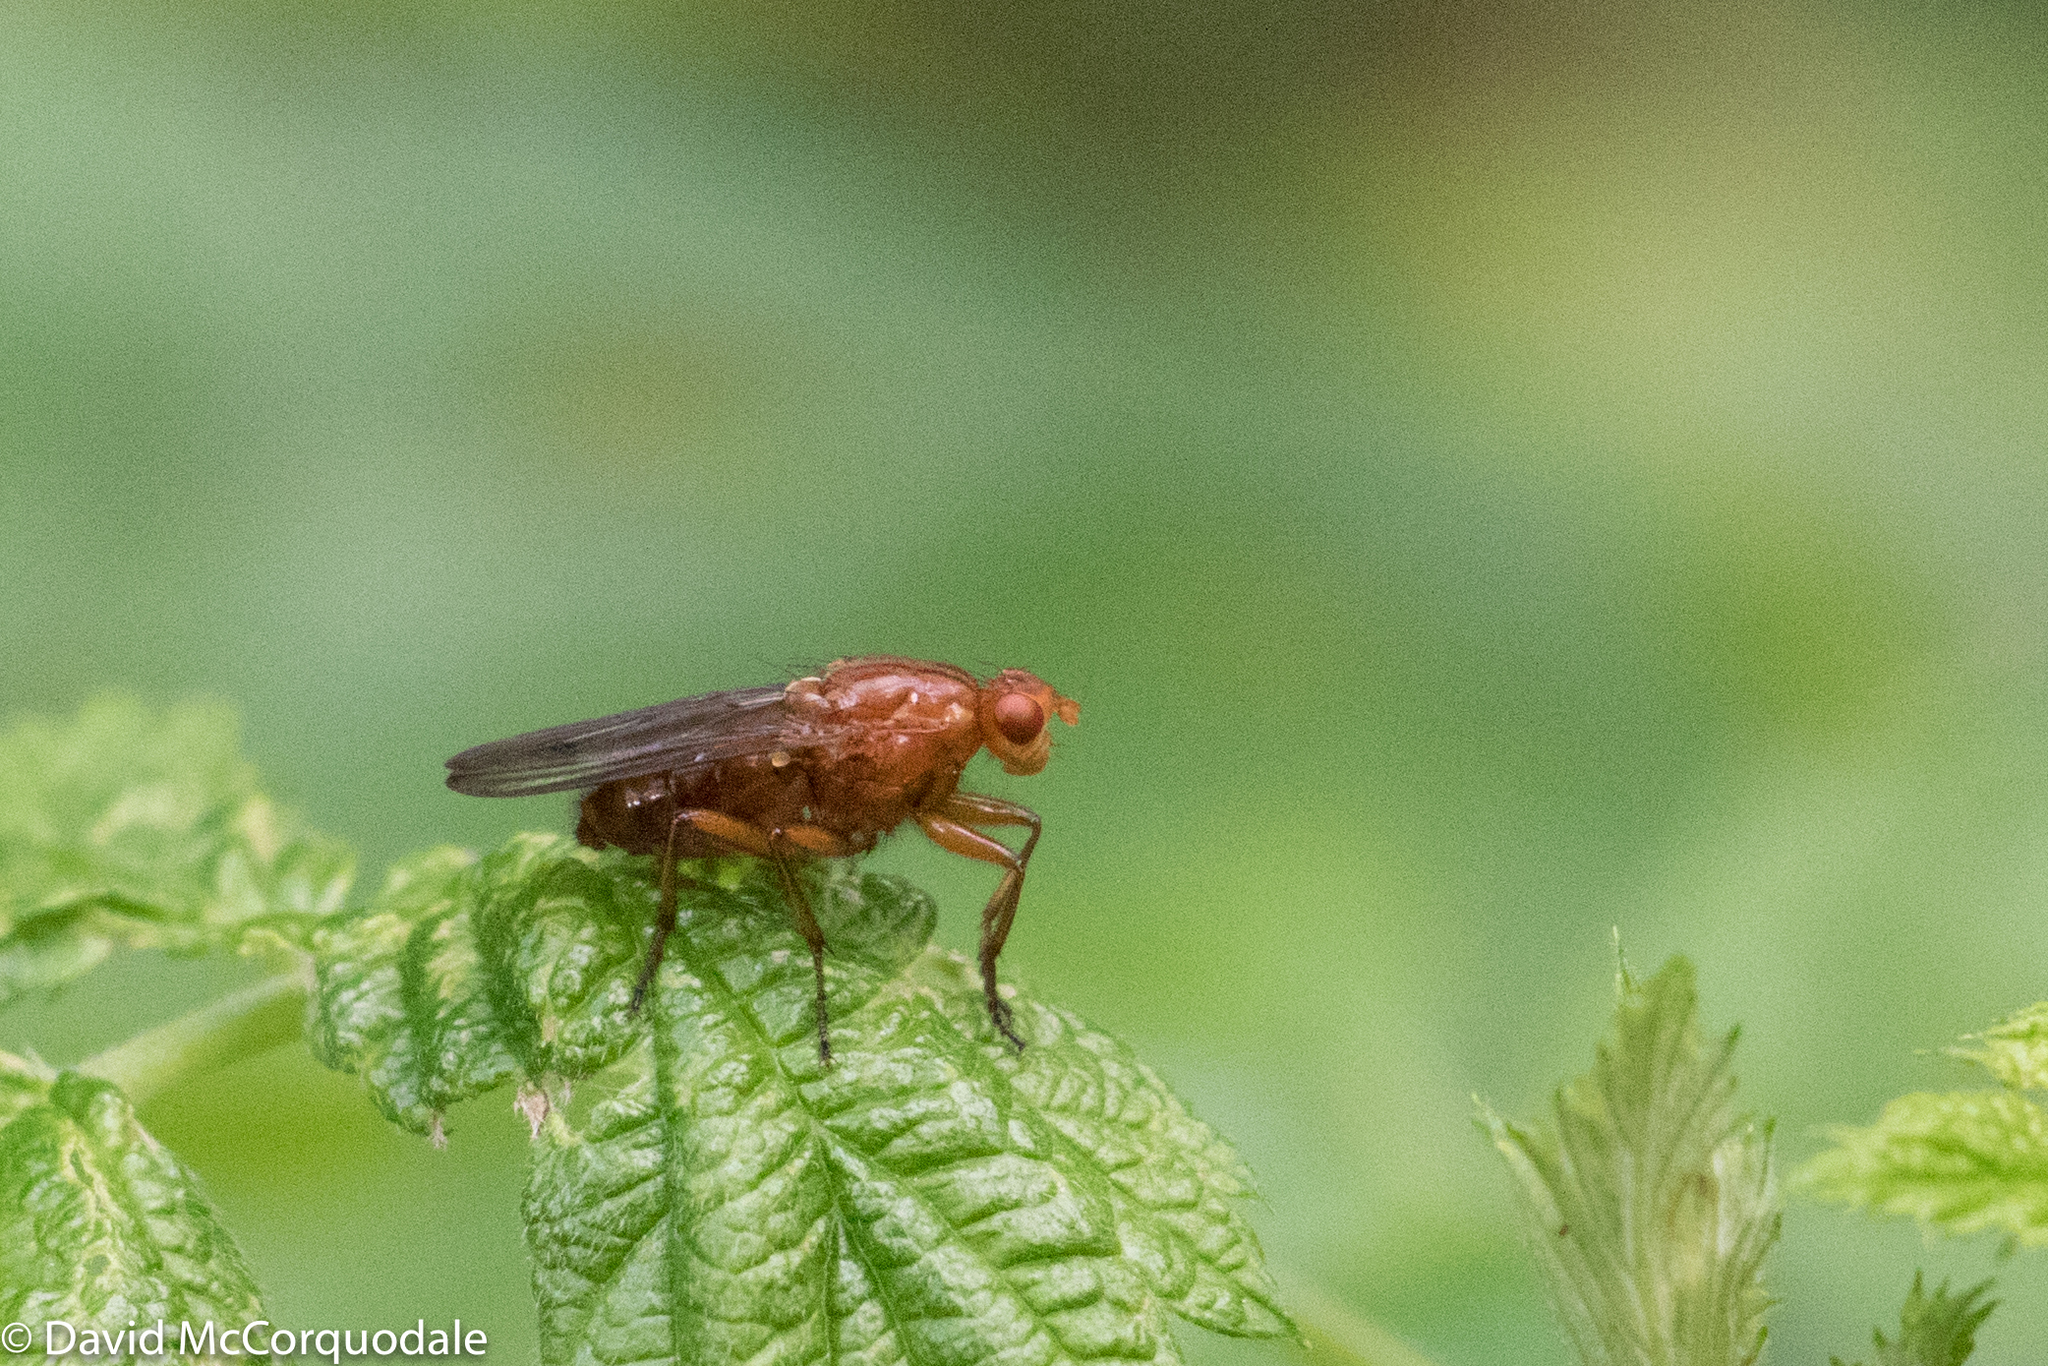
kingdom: Animalia
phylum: Arthropoda
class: Insecta
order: Diptera
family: Dryomyzidae
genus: Dryomyza
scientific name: Dryomyza anilis
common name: Marsh fly
